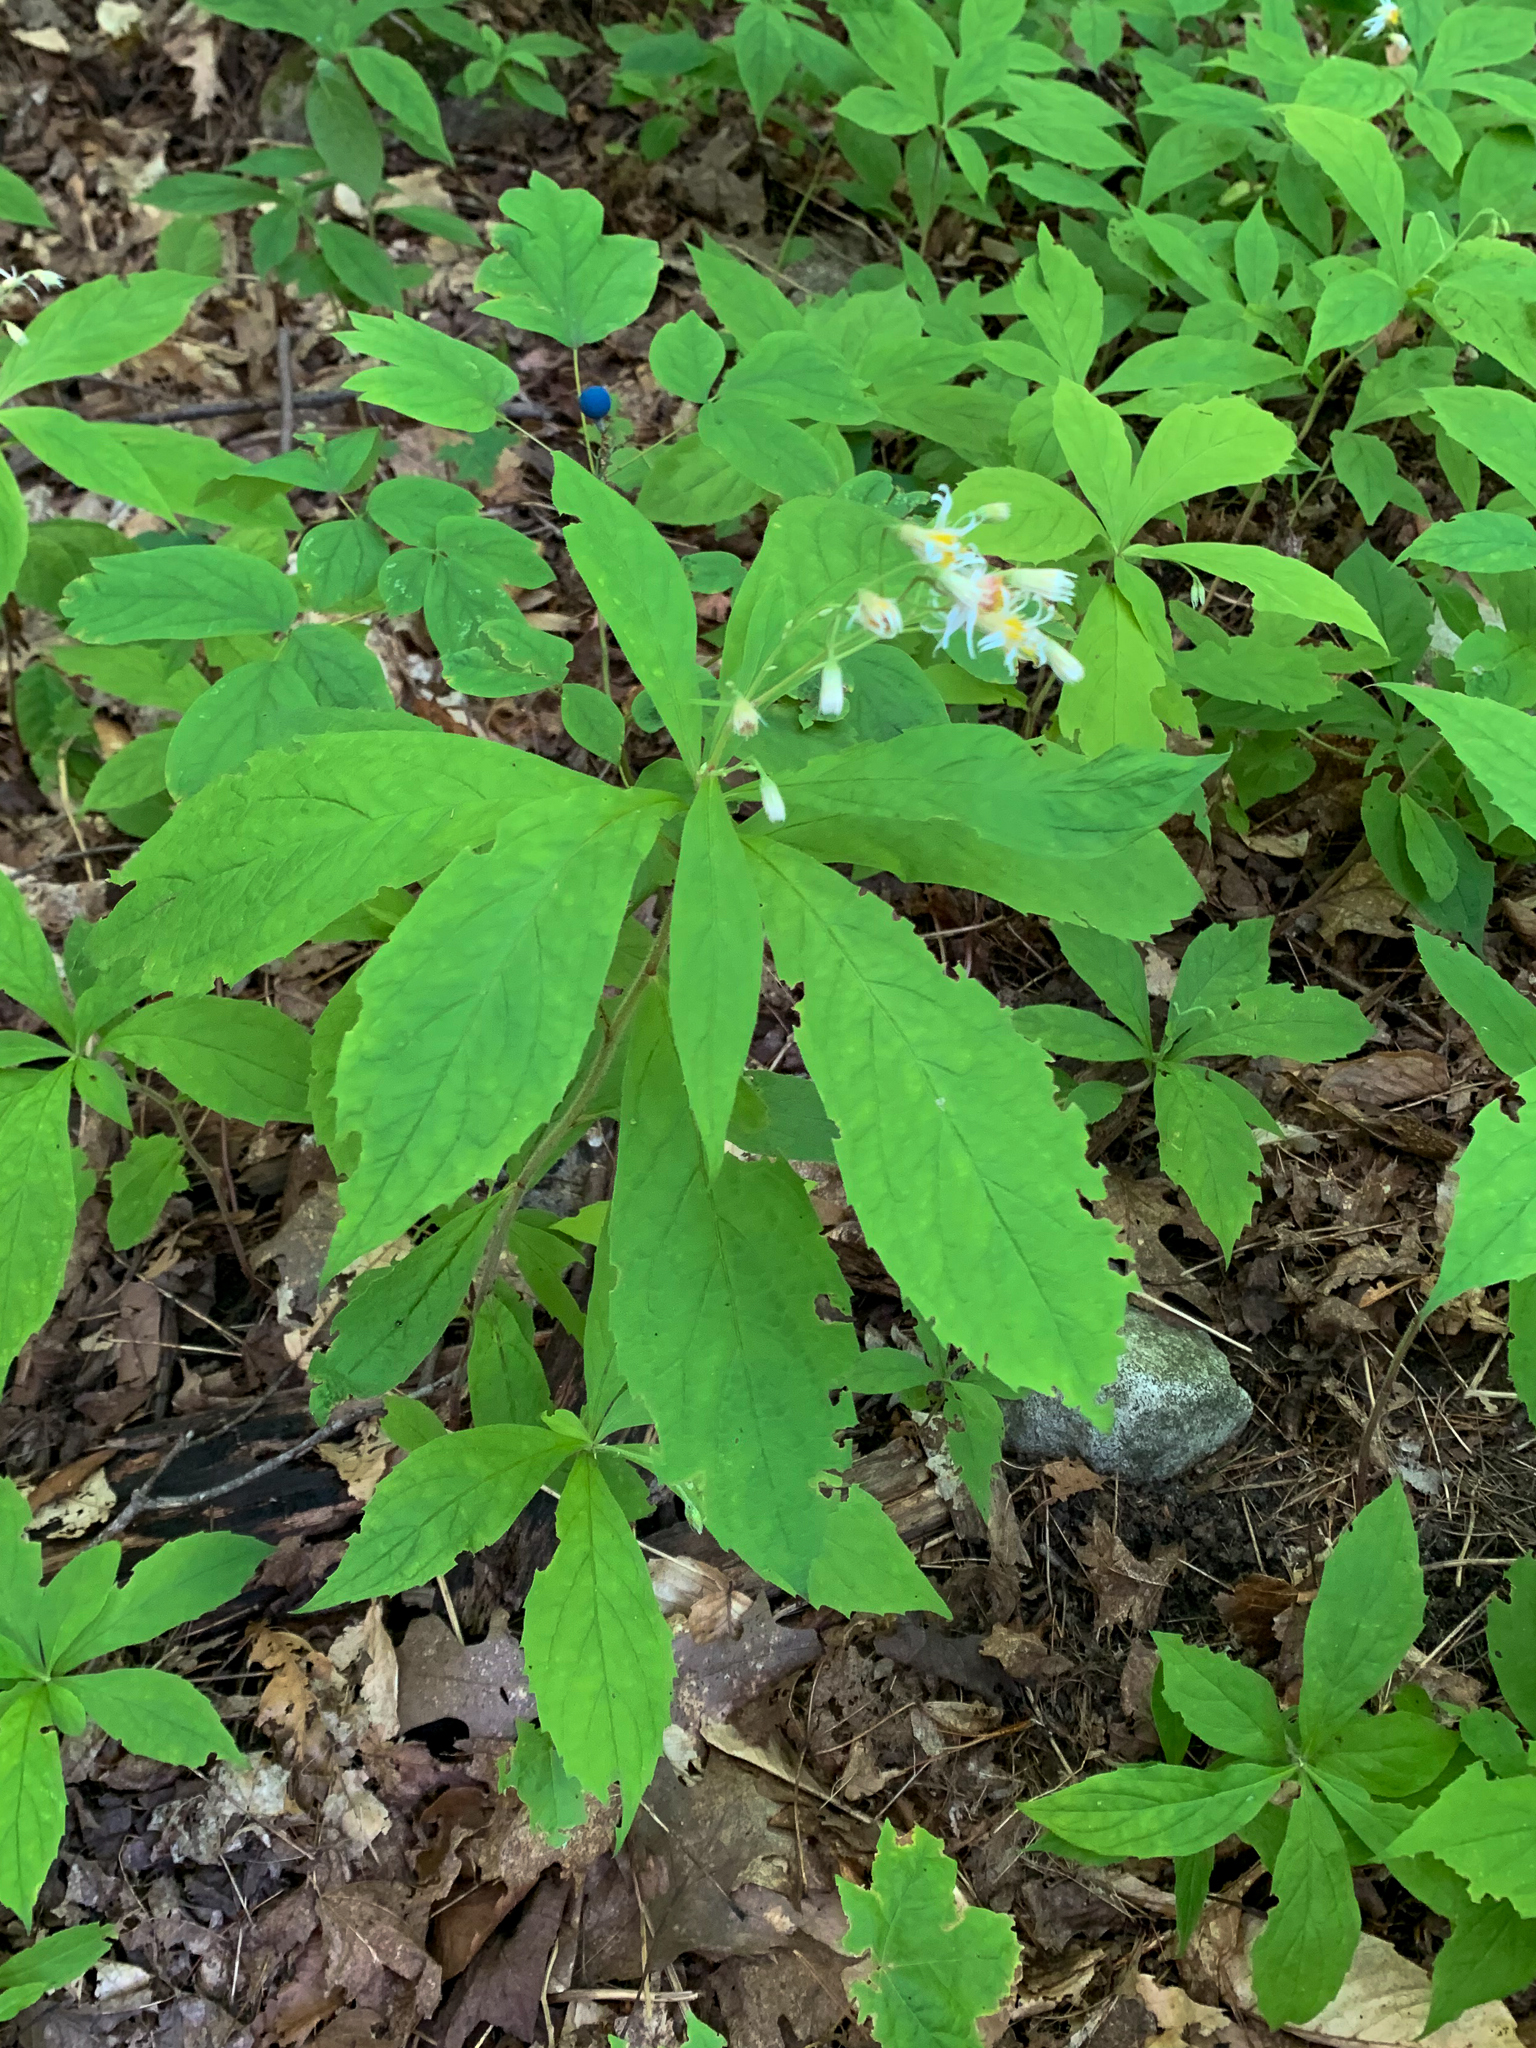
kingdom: Plantae
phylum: Tracheophyta
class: Magnoliopsida
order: Asterales
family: Asteraceae
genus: Oclemena
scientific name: Oclemena acuminata
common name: Mountain aster
